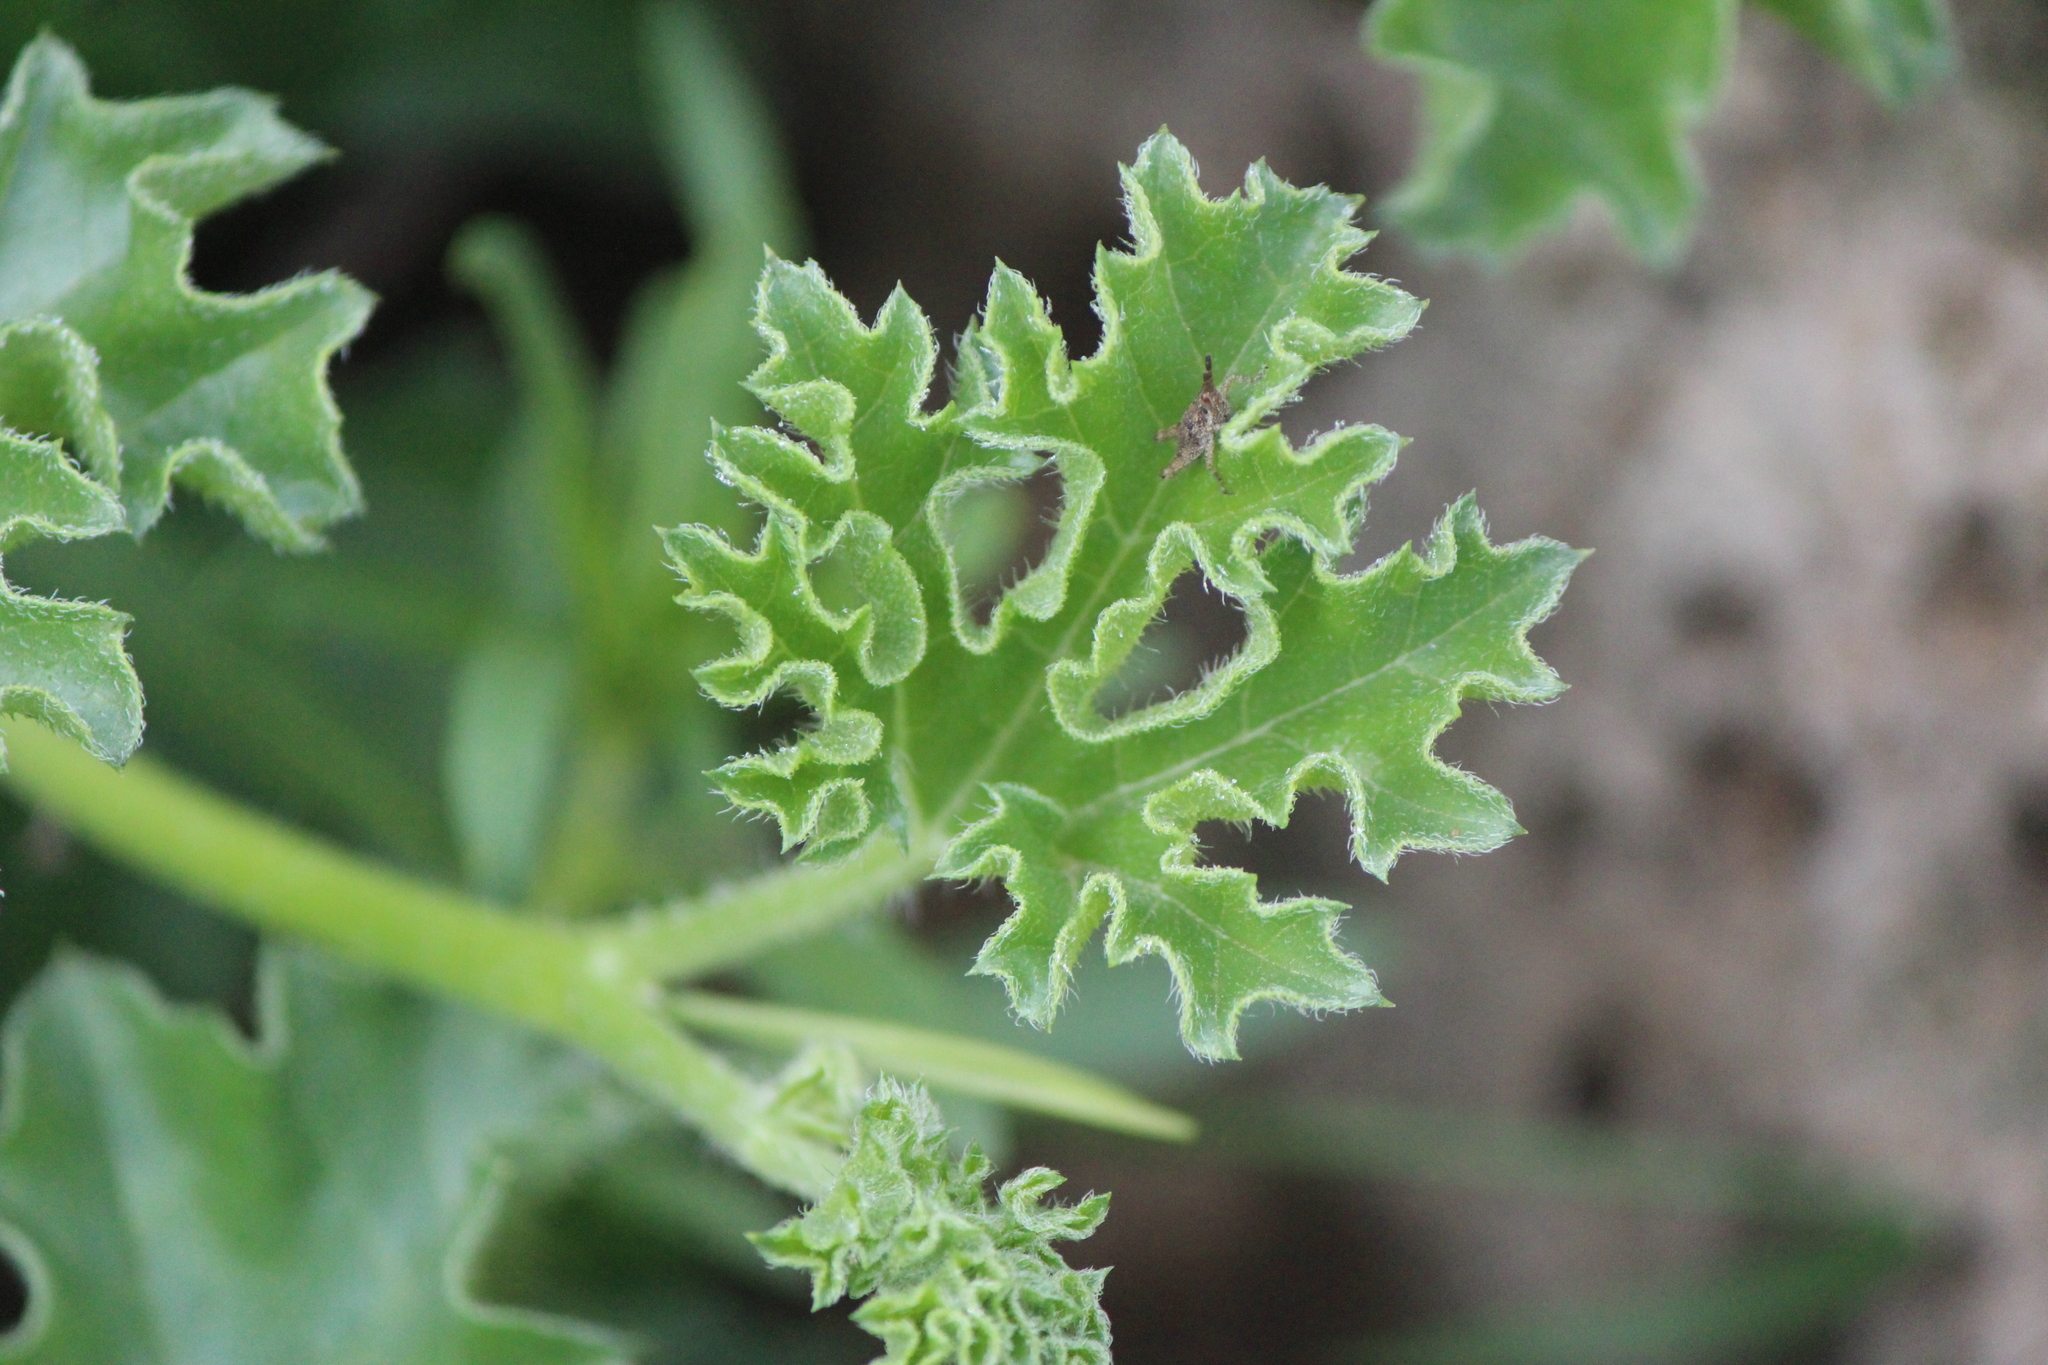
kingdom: Plantae
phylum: Tracheophyta
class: Magnoliopsida
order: Cucurbitales
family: Cucurbitaceae
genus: Apodanthera
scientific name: Apodanthera undulata
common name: Melon-loco
